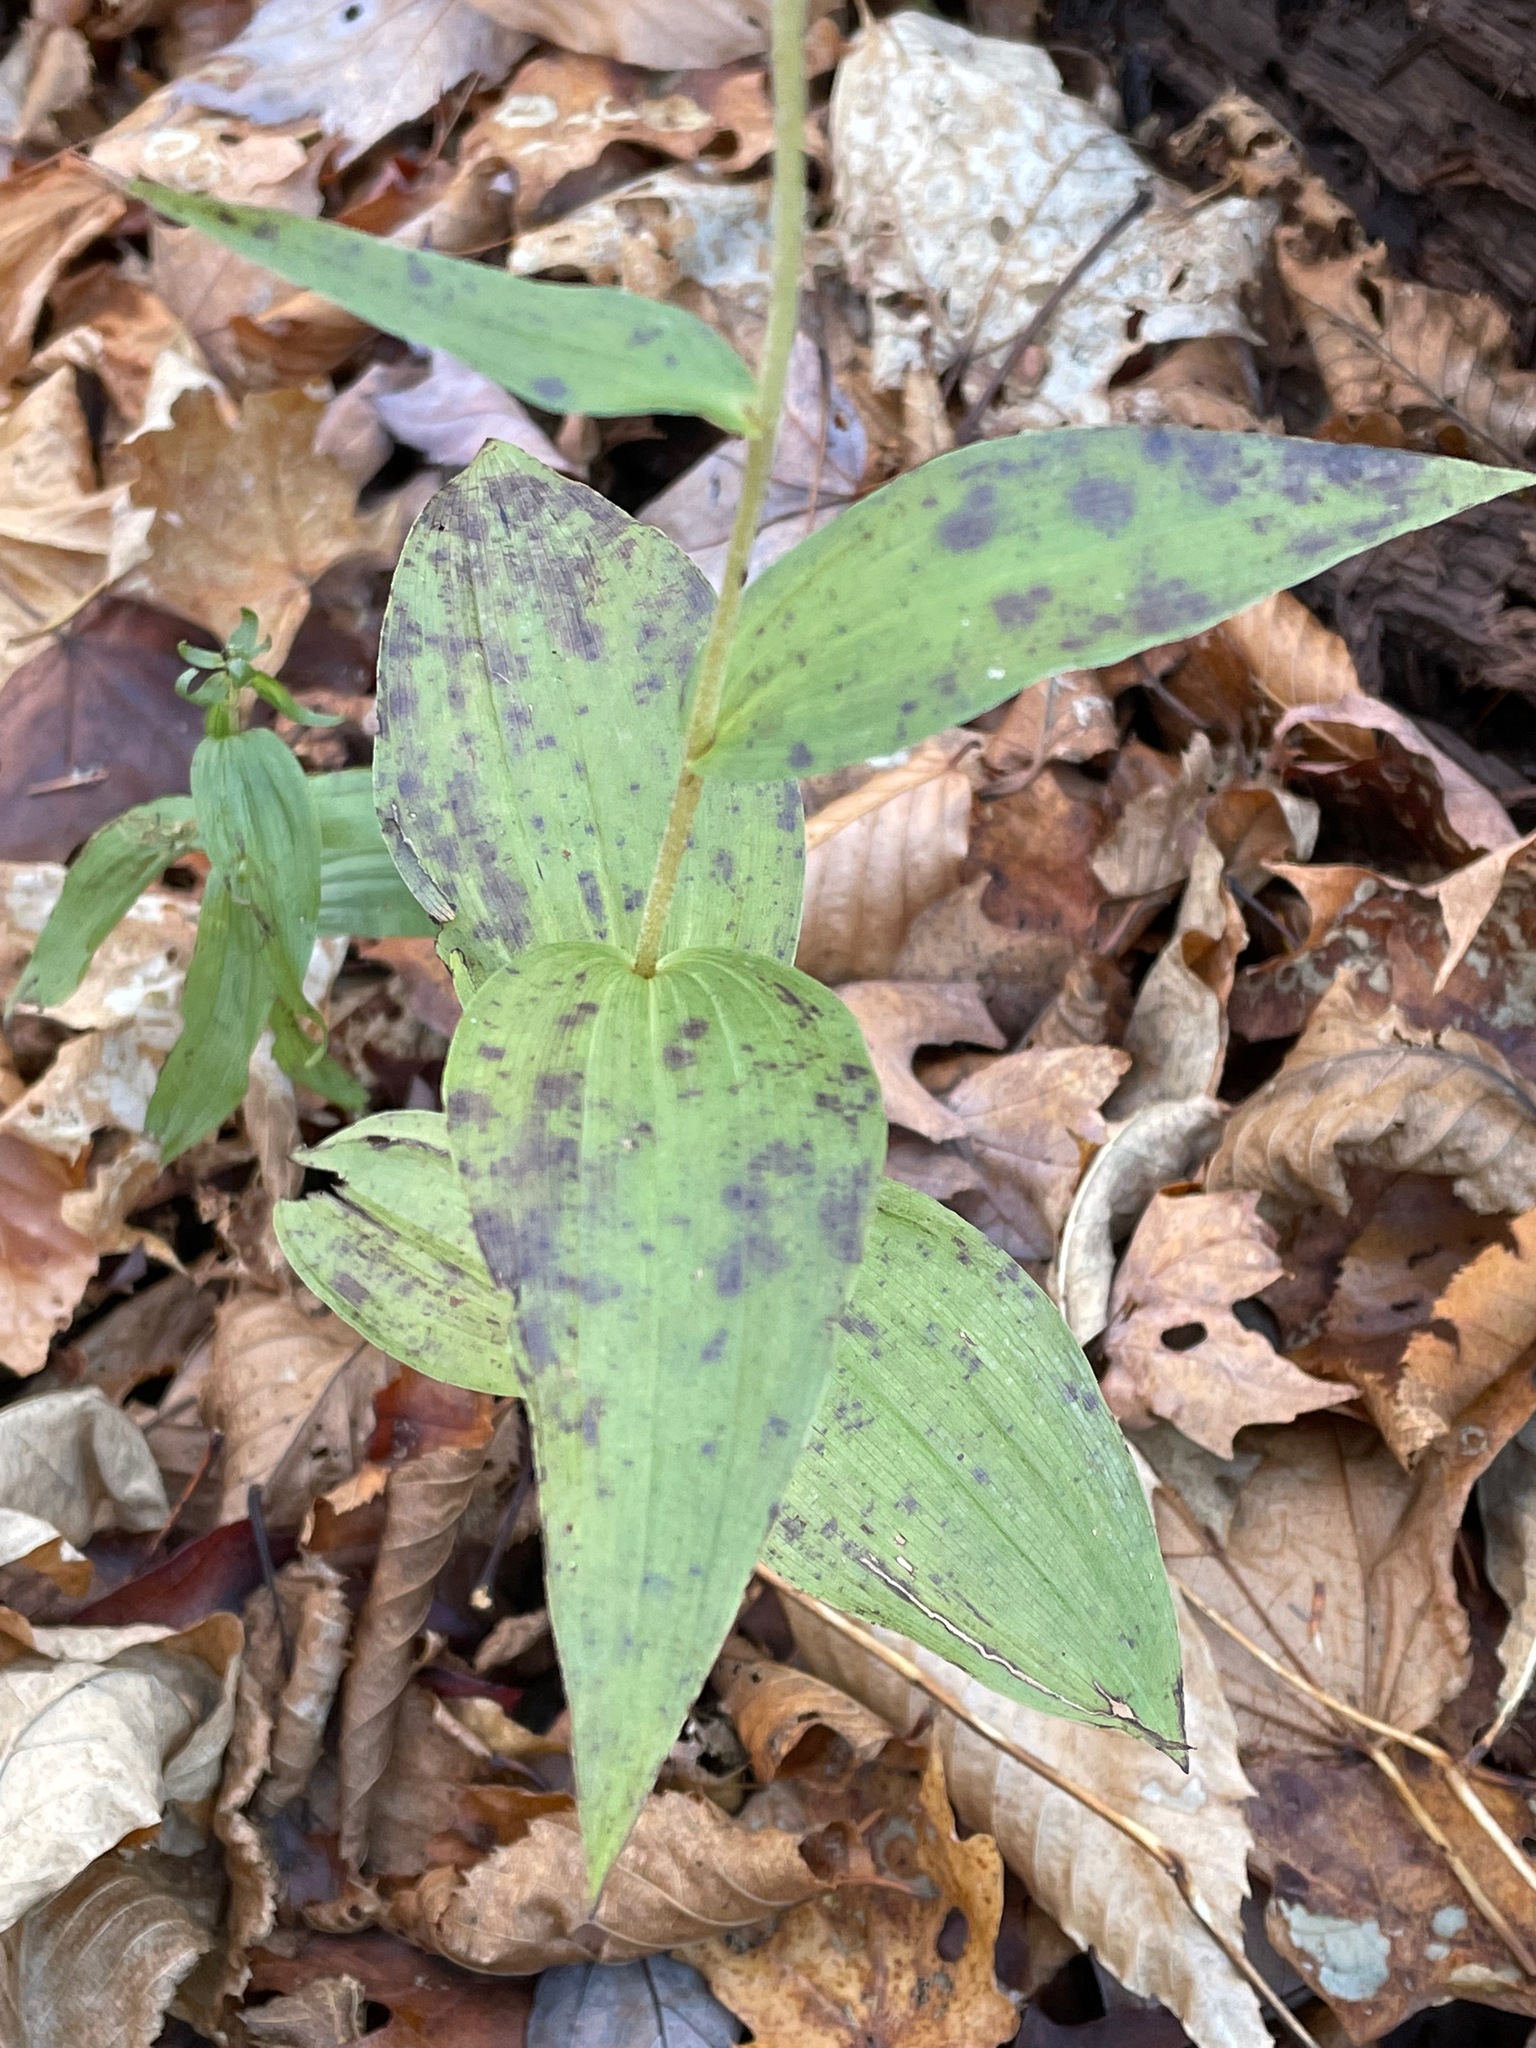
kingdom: Plantae
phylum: Tracheophyta
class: Liliopsida
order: Asparagales
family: Orchidaceae
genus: Epipactis
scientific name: Epipactis helleborine
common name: Broad-leaved helleborine
